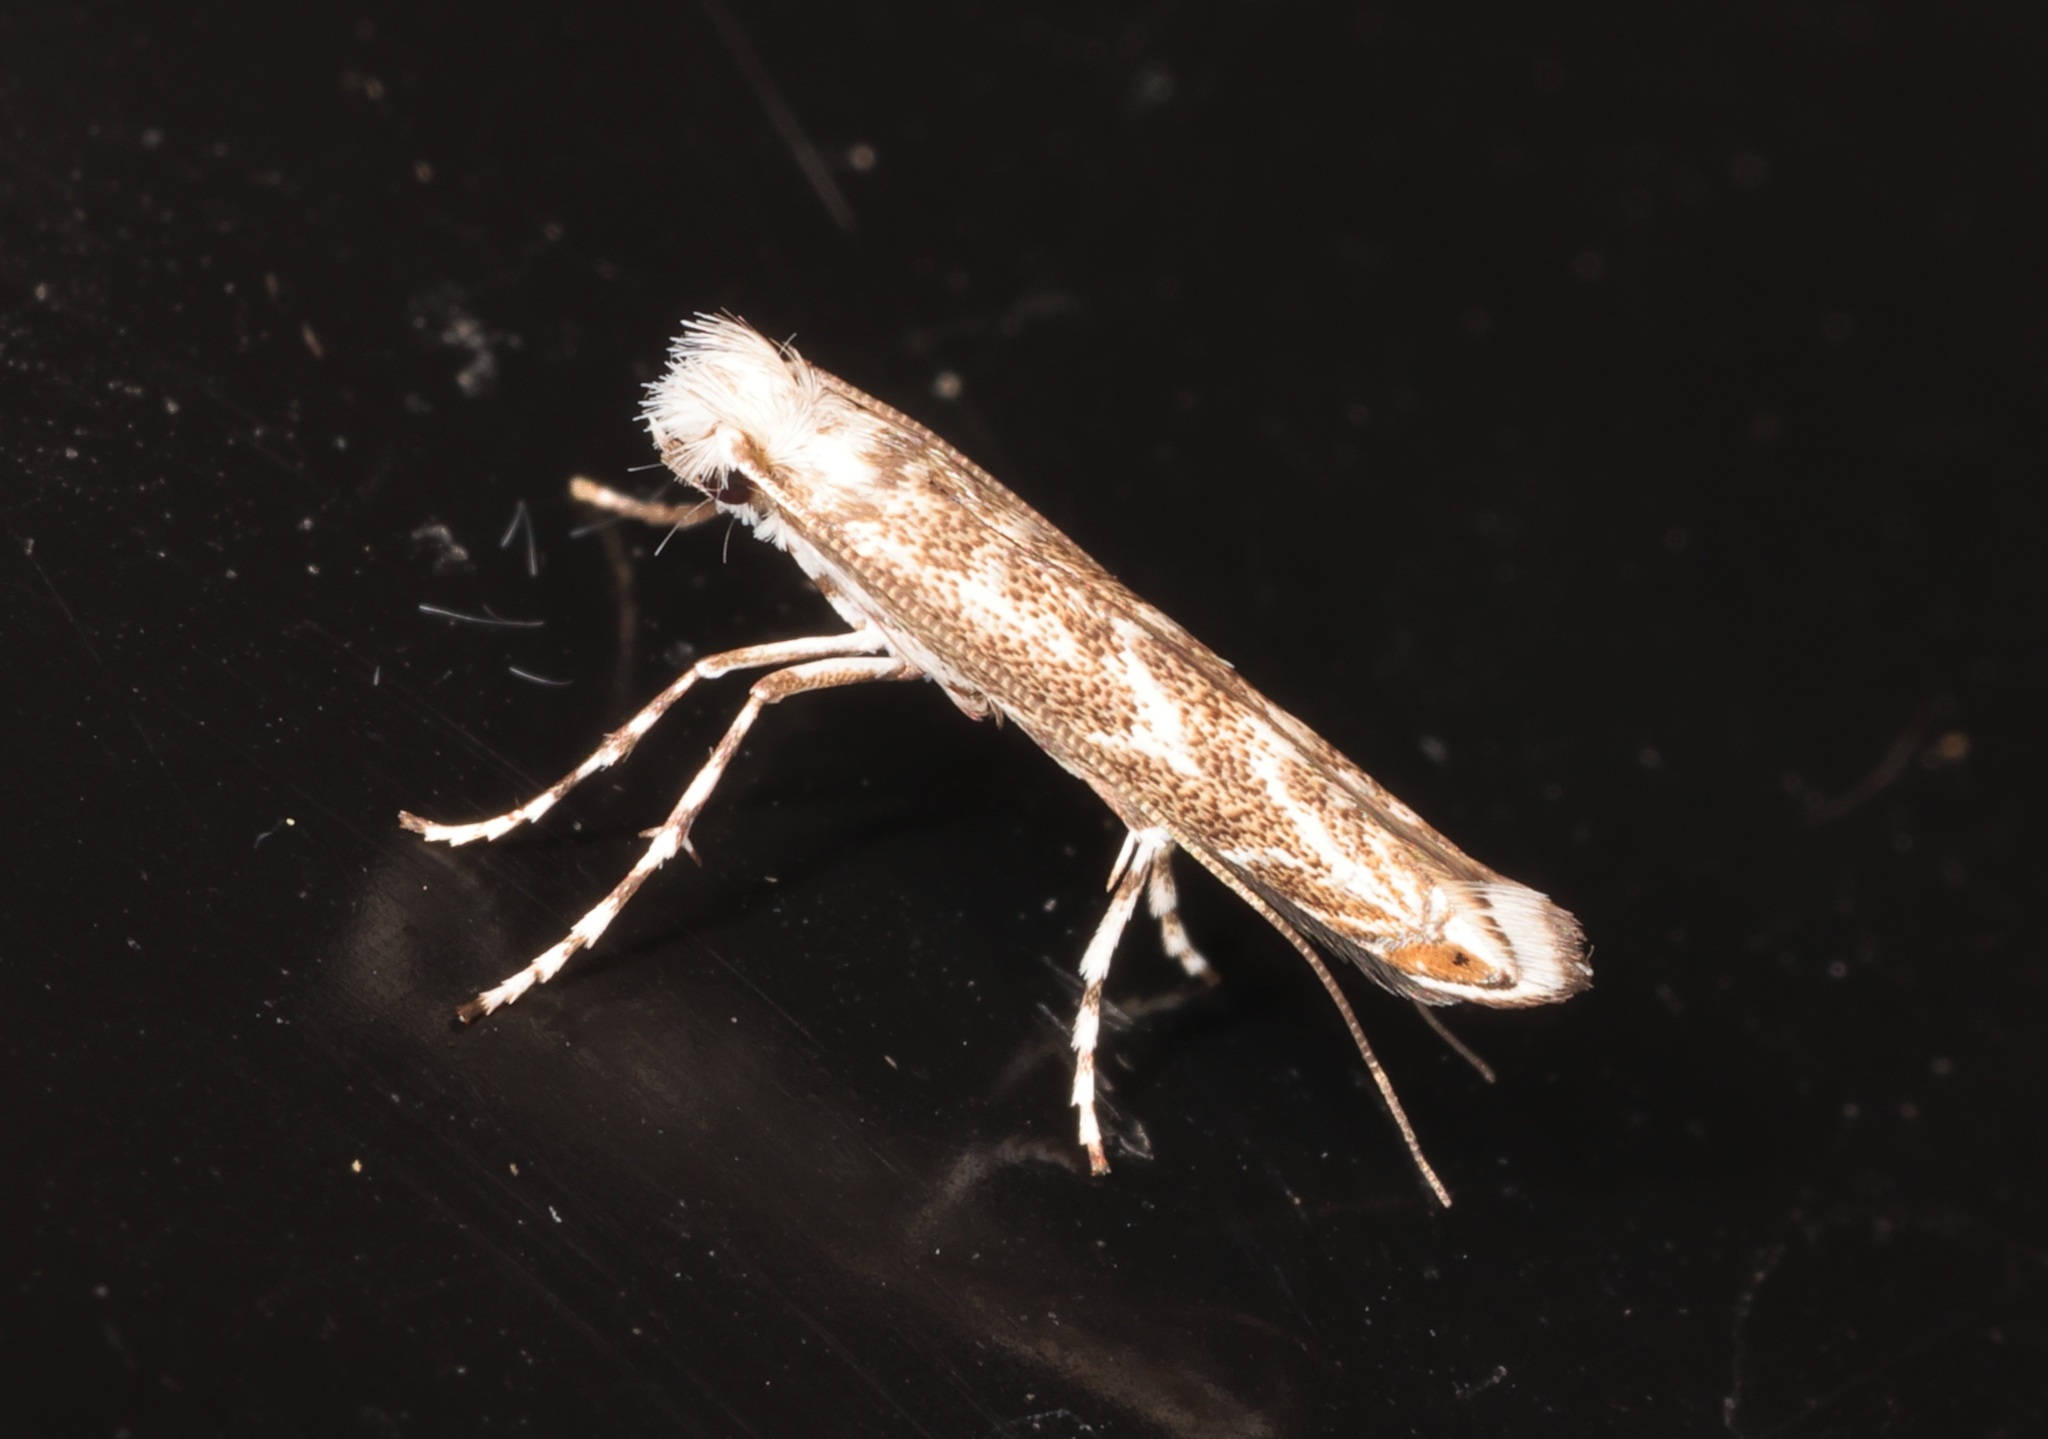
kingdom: Animalia
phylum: Arthropoda
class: Insecta
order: Lepidoptera
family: Gracillariidae
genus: Epicephala
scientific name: Epicephala lanceolaria
